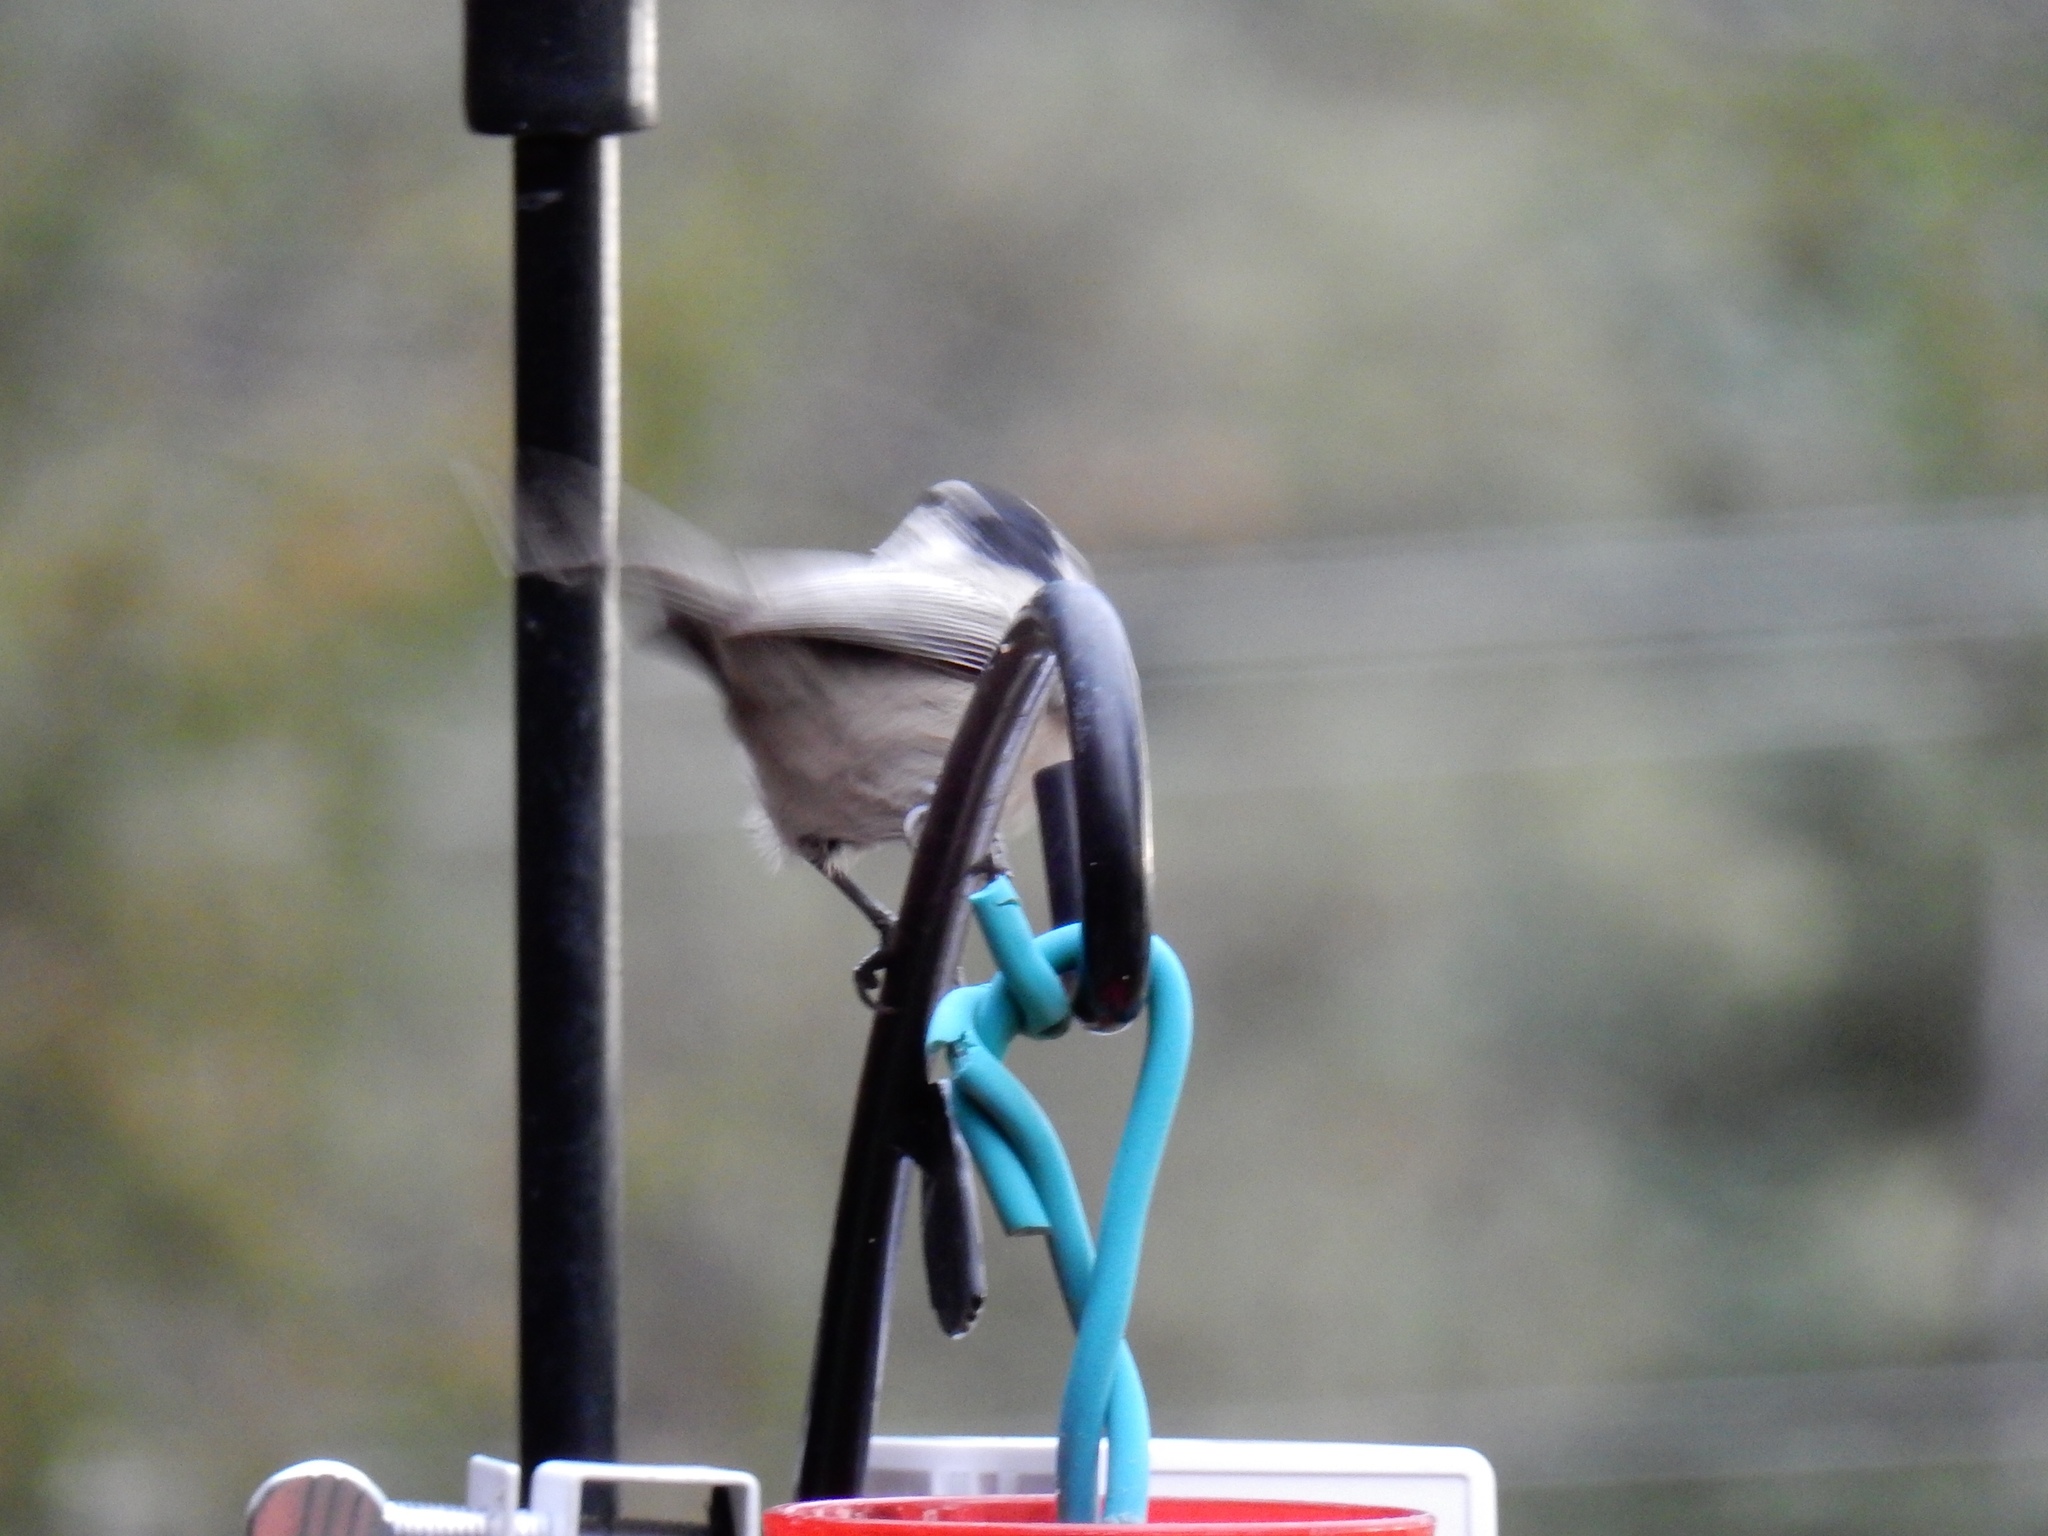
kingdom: Animalia
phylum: Chordata
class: Aves
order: Passeriformes
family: Paridae
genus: Poecile
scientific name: Poecile gambeli
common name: Mountain chickadee
